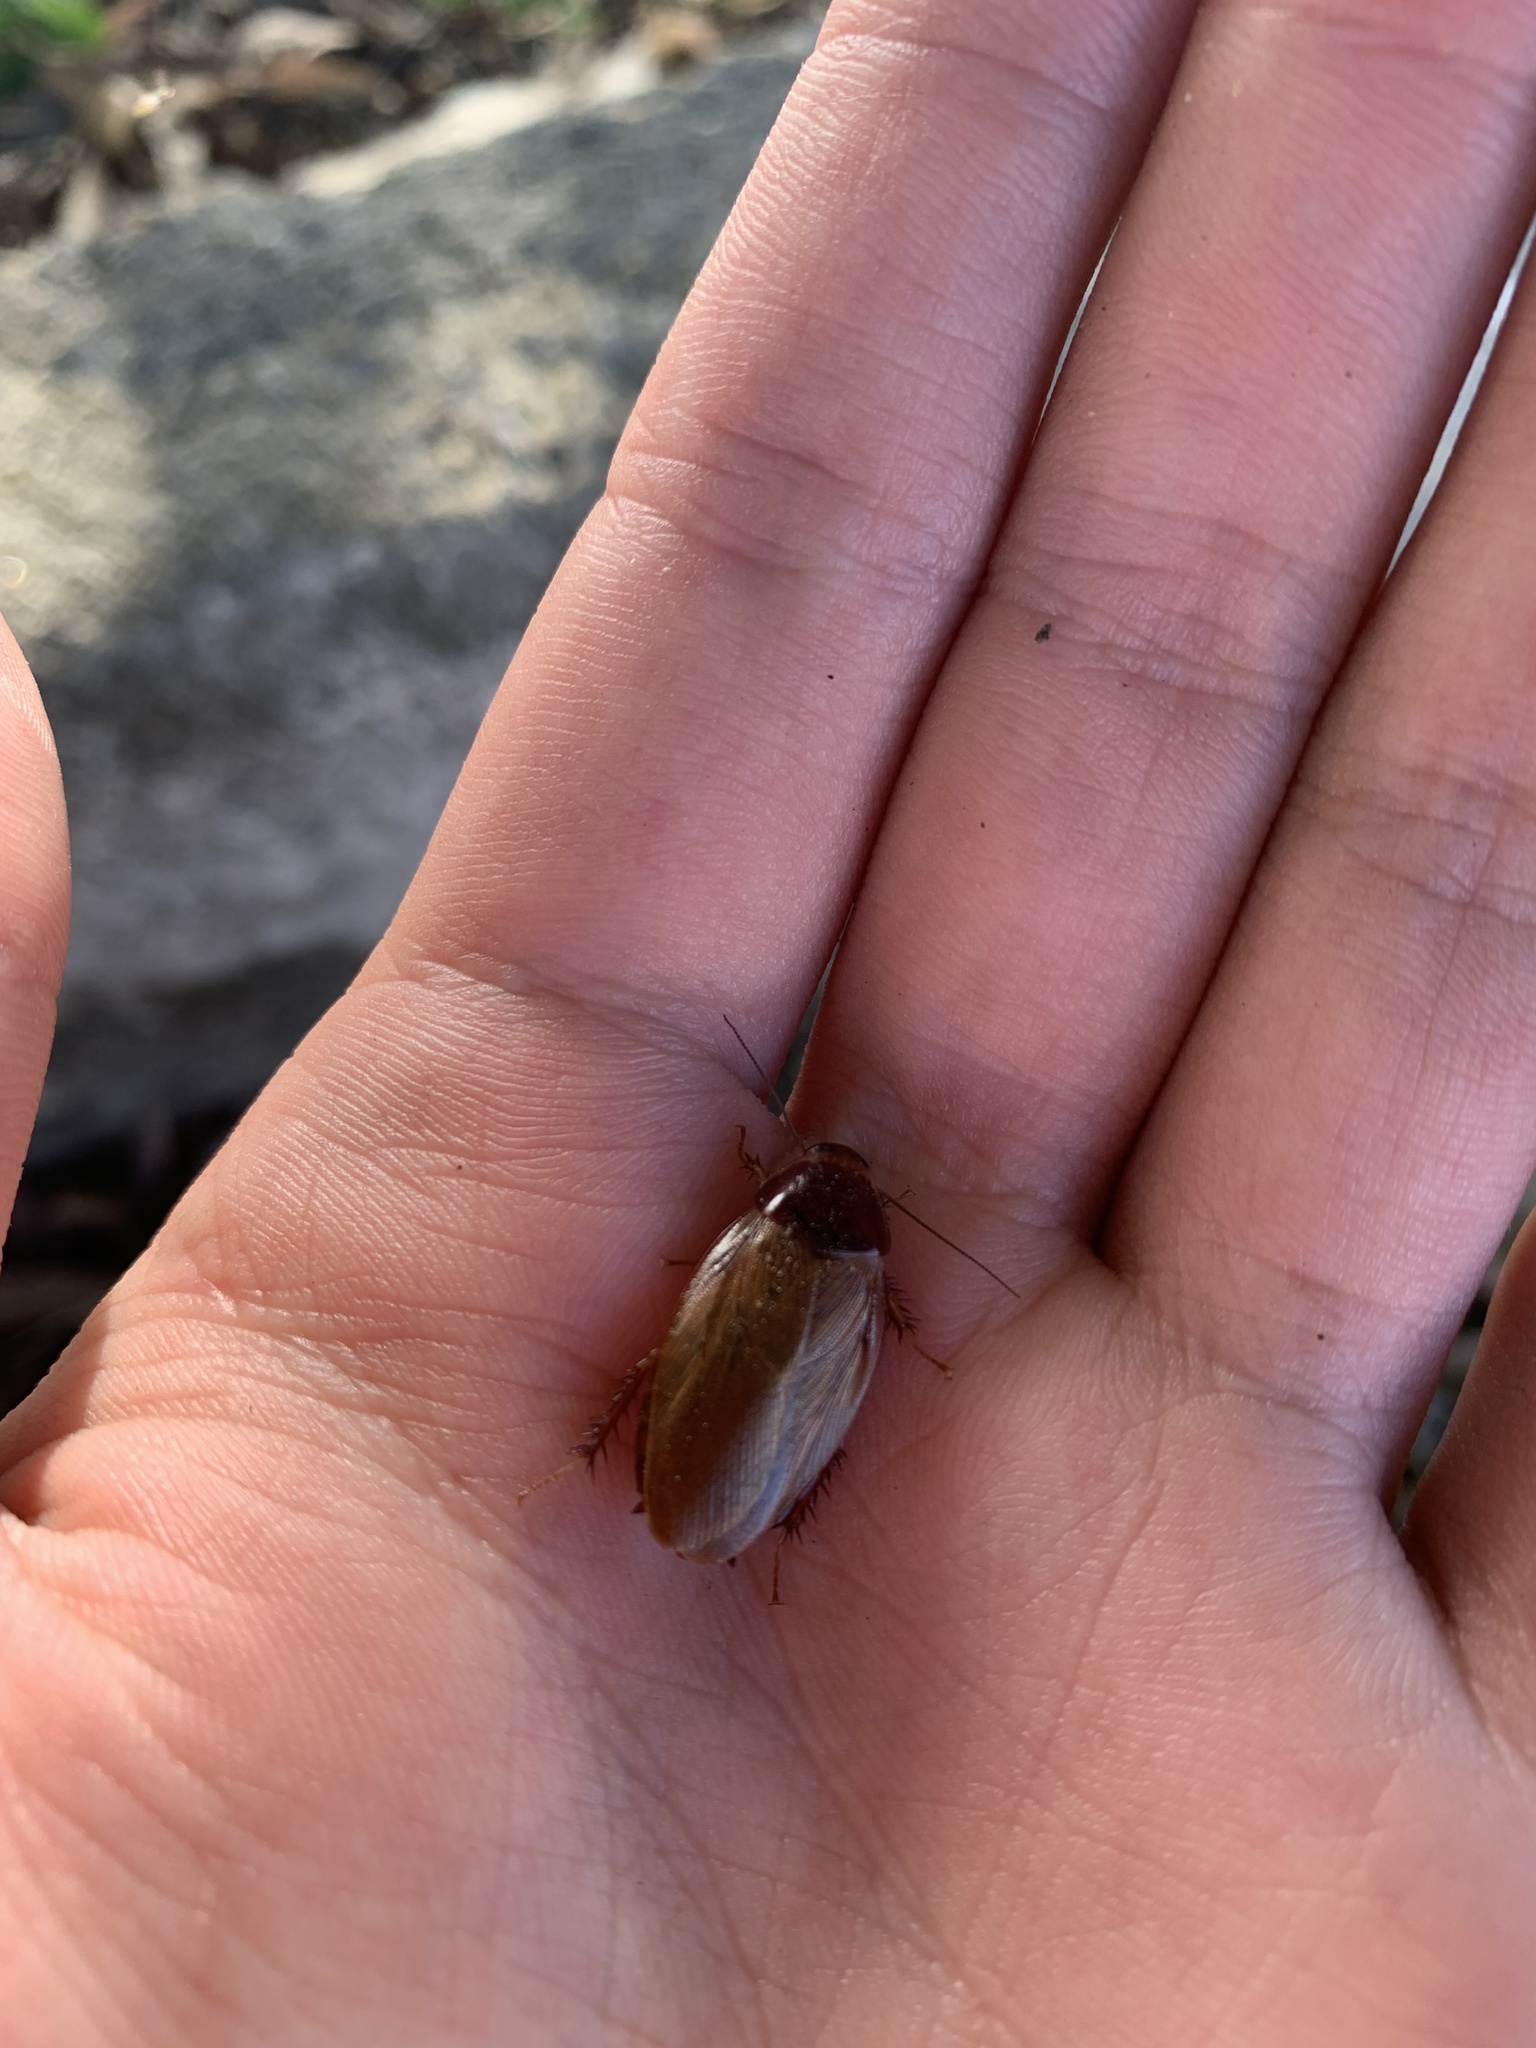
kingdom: Animalia
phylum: Arthropoda
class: Insecta
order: Blattodea
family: Blaberidae
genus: Pycnoscelus
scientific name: Pycnoscelus surinamensis
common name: Surinam cockroach
